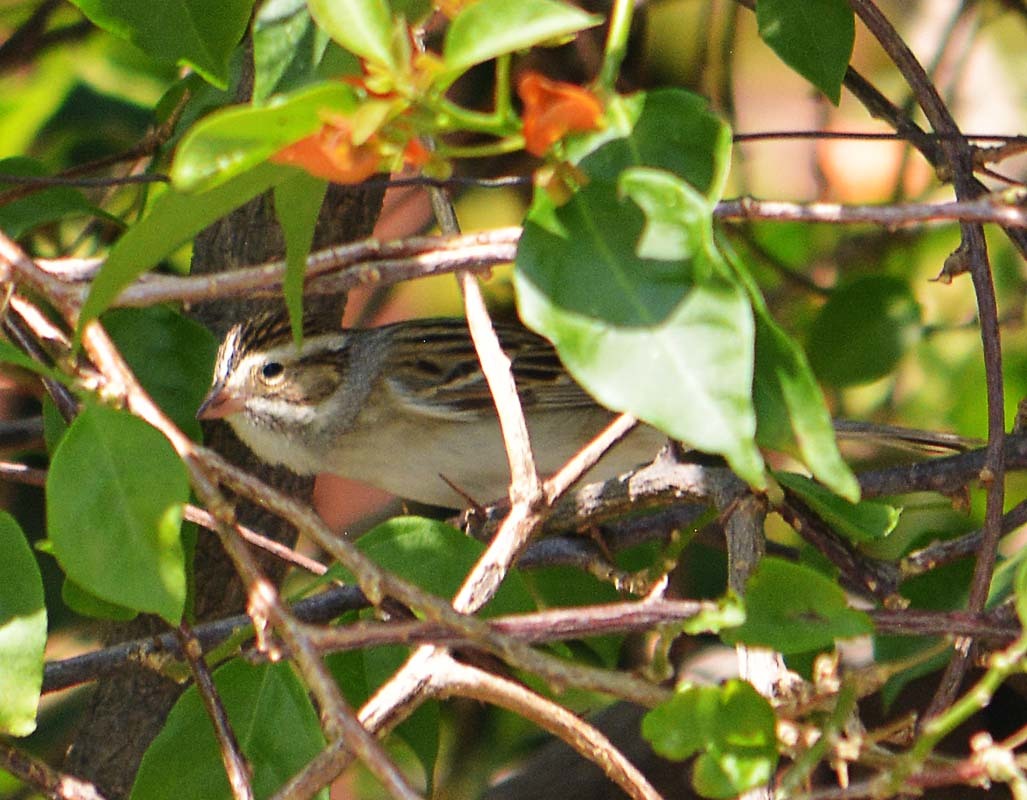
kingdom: Animalia
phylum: Chordata
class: Aves
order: Passeriformes
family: Passerellidae
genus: Spizella
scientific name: Spizella pallida
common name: Clay-colored sparrow
